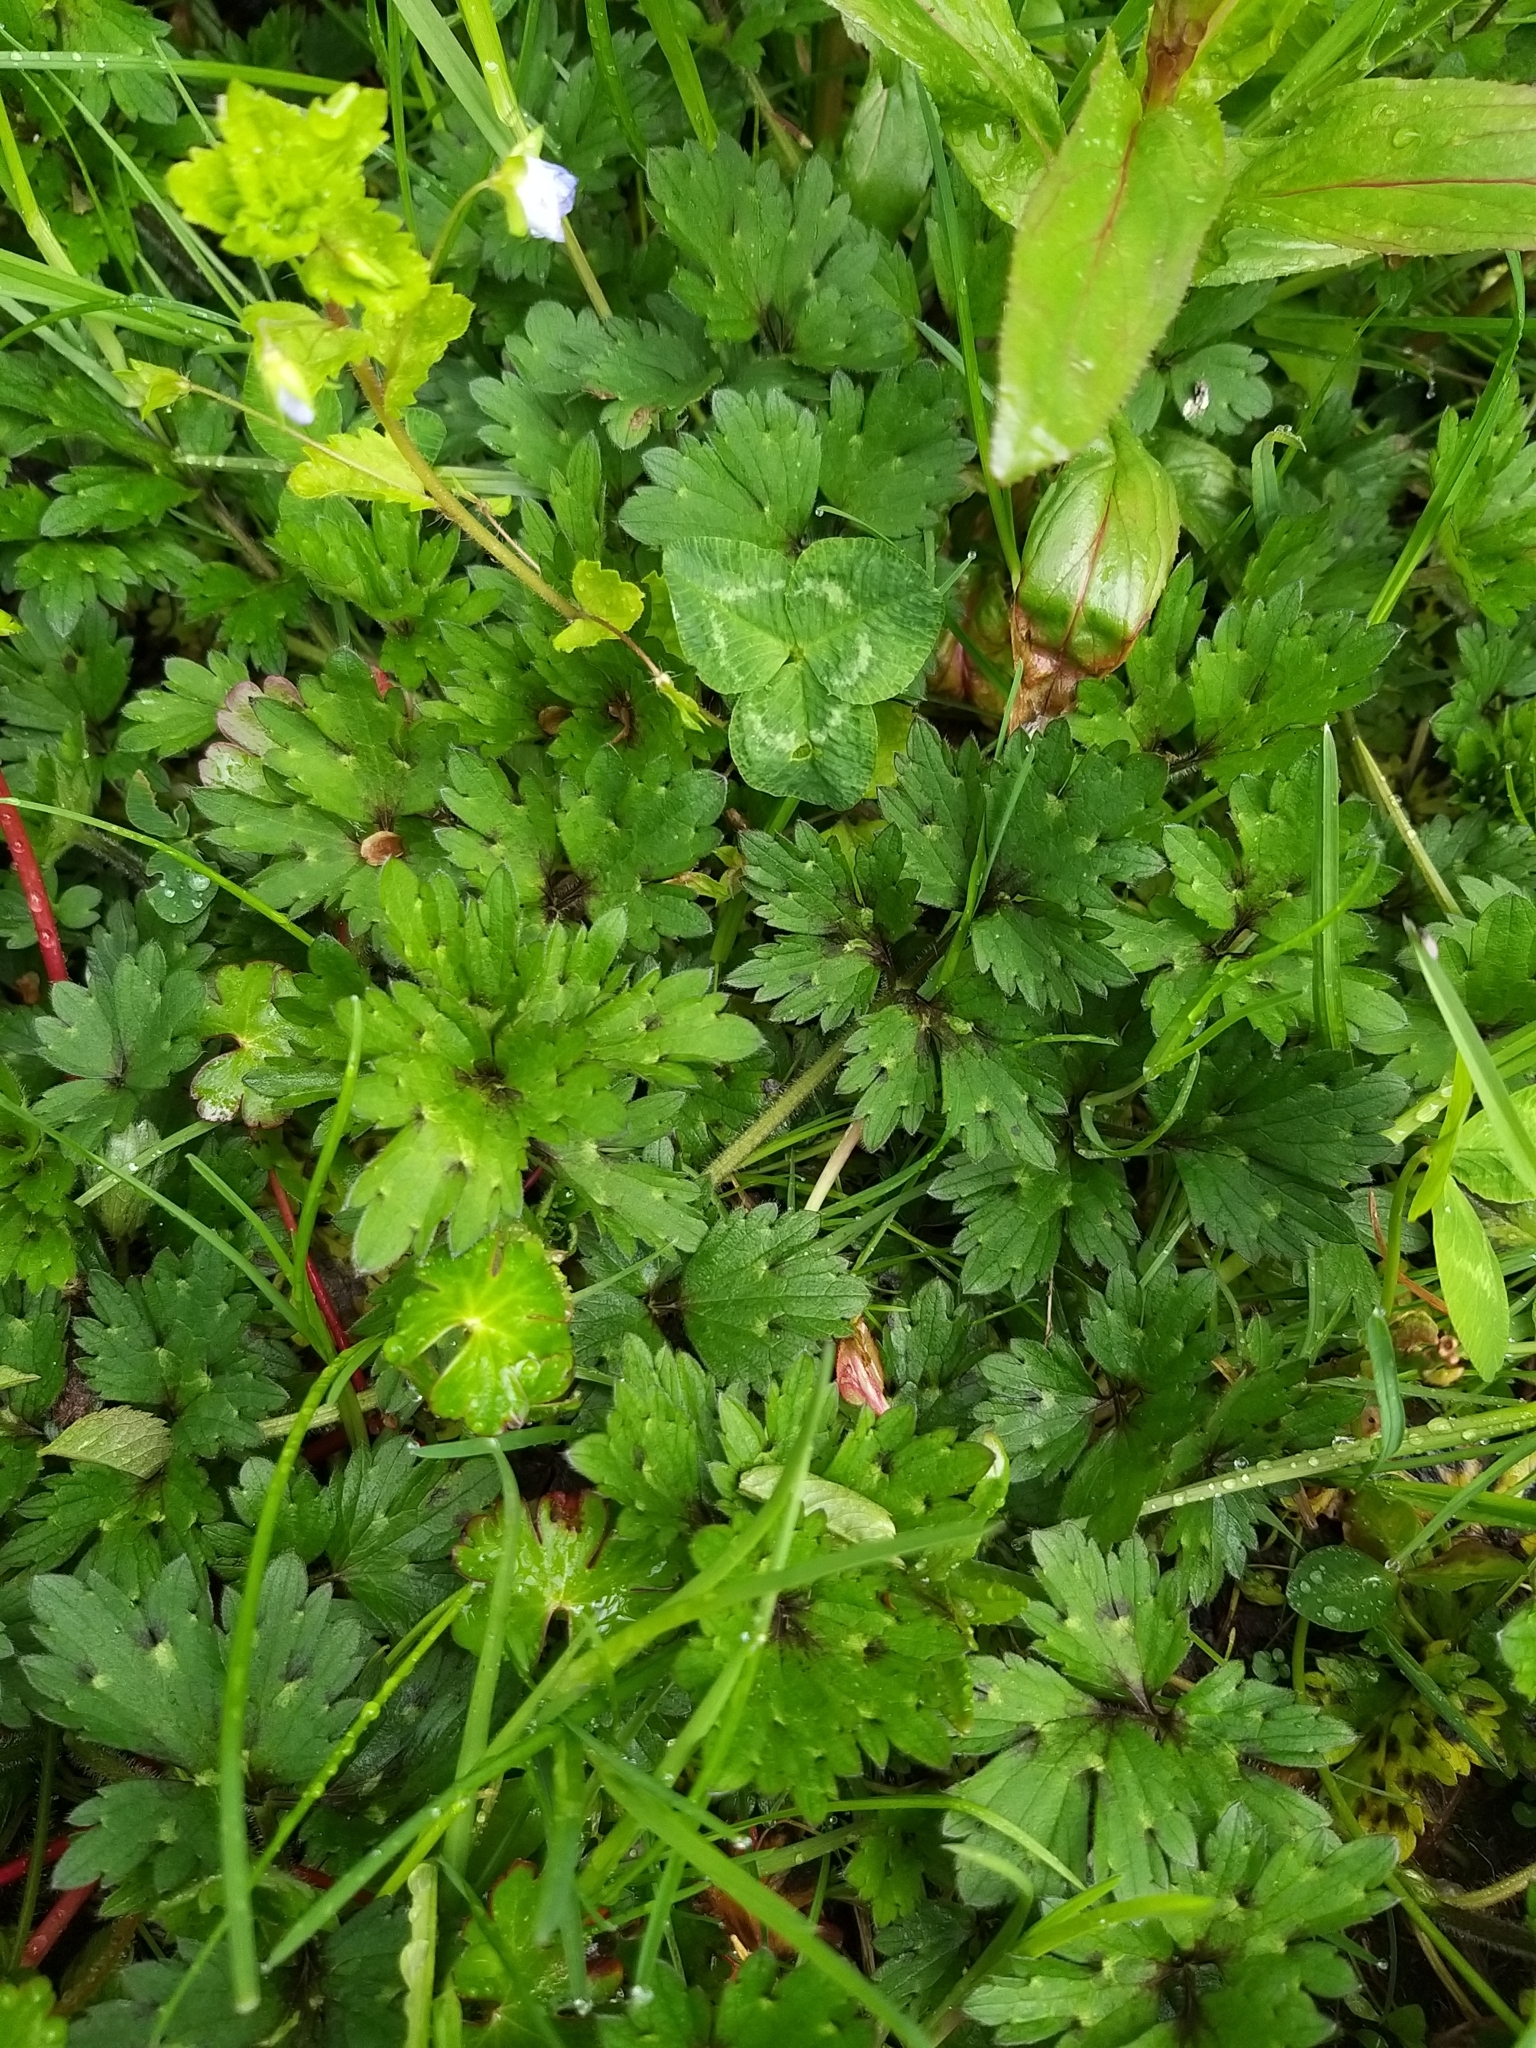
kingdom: Plantae
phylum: Tracheophyta
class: Magnoliopsida
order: Ranunculales
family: Ranunculaceae
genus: Ranunculus
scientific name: Ranunculus repens
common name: Creeping buttercup
